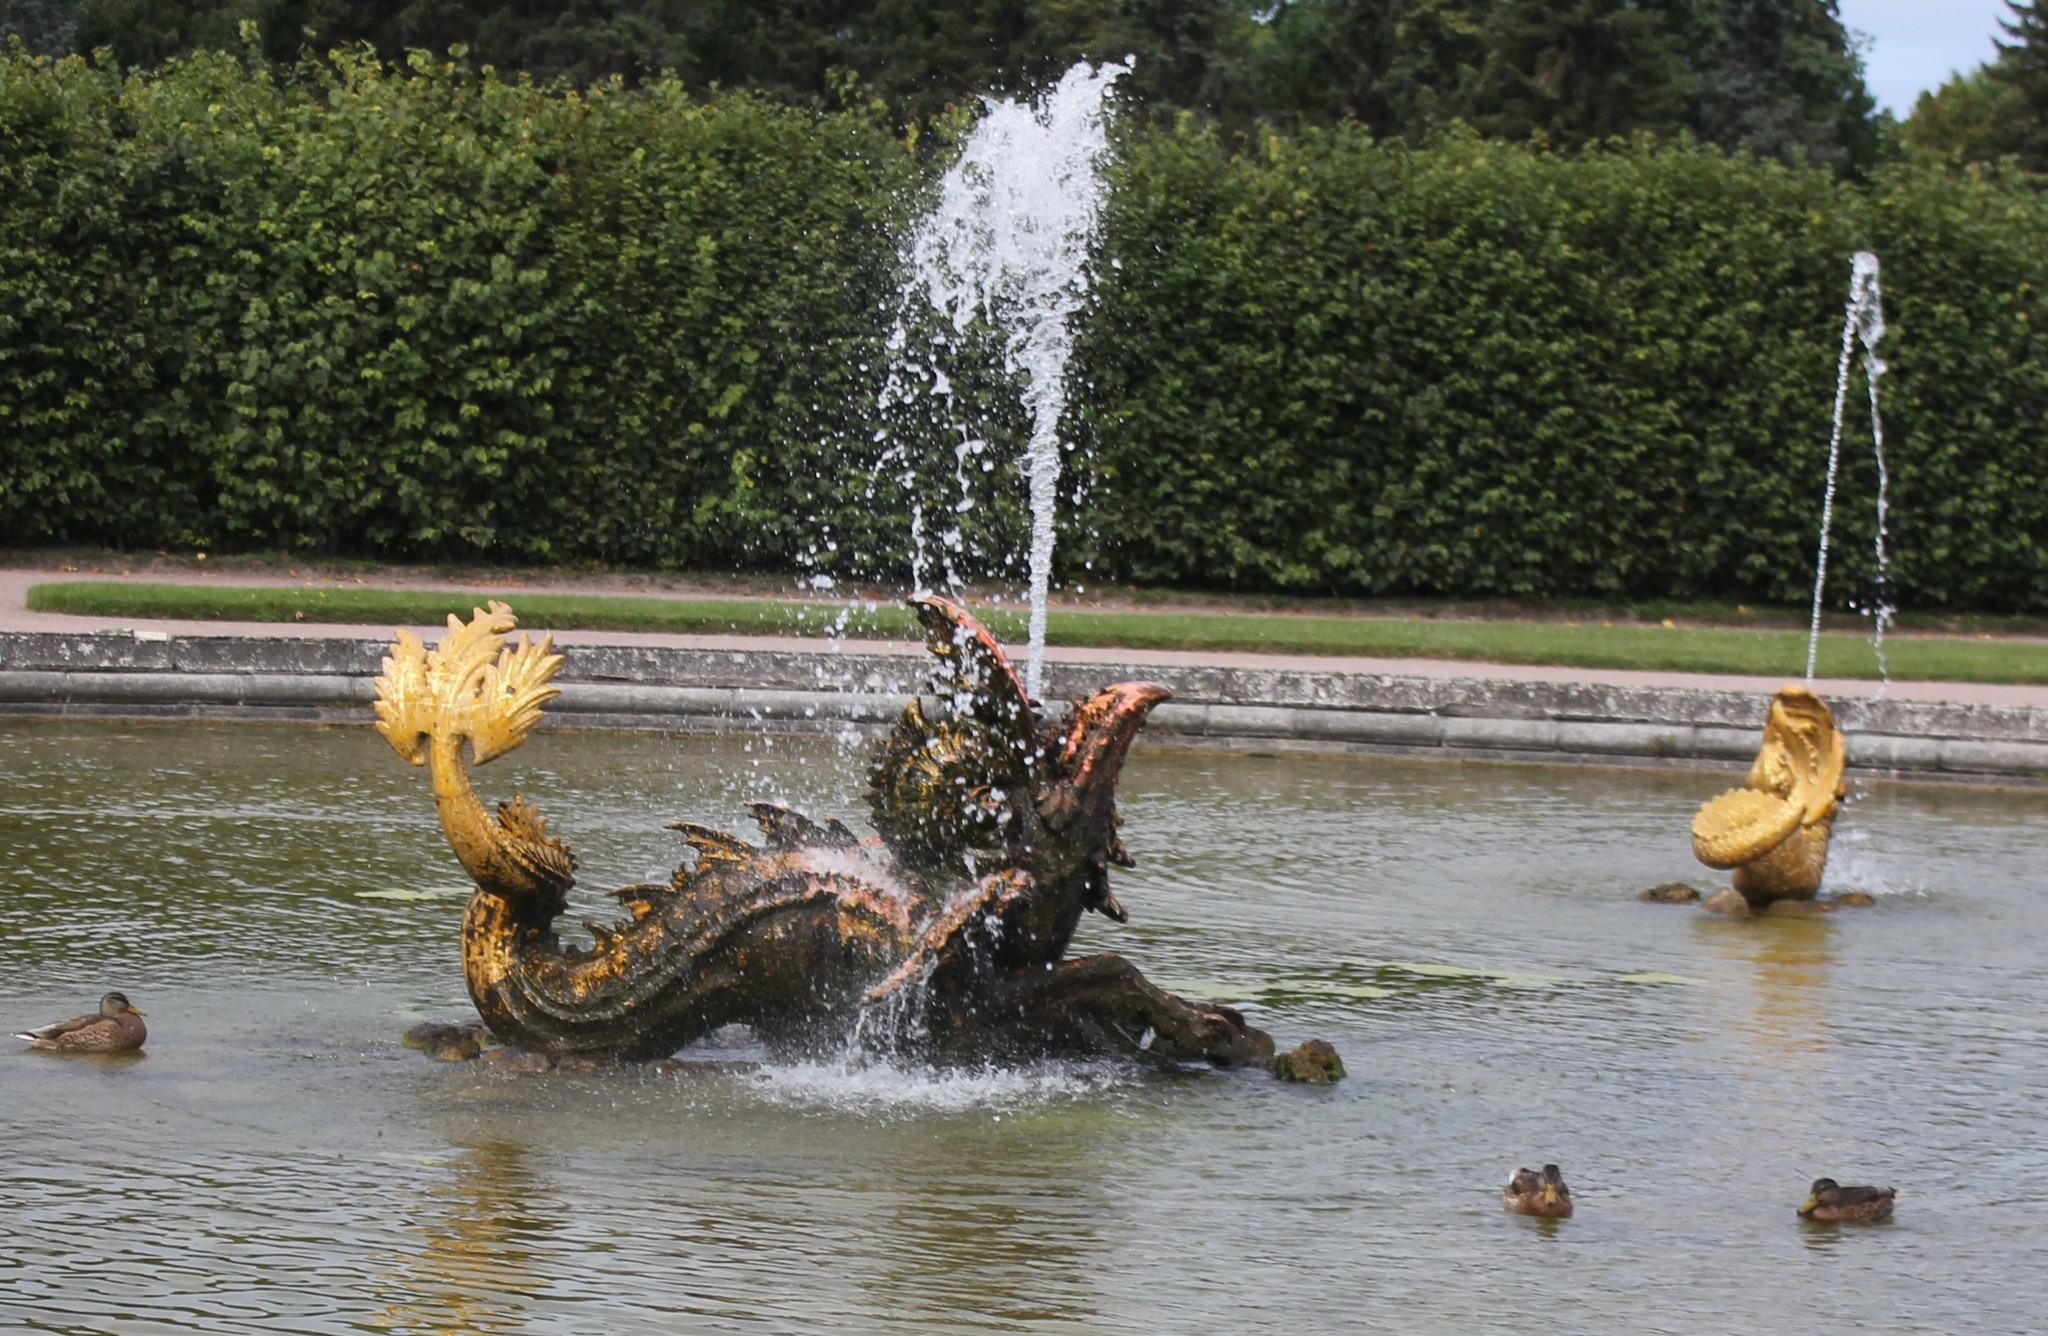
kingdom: Animalia
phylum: Chordata
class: Aves
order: Anseriformes
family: Anatidae
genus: Anas
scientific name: Anas platyrhynchos
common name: Mallard
